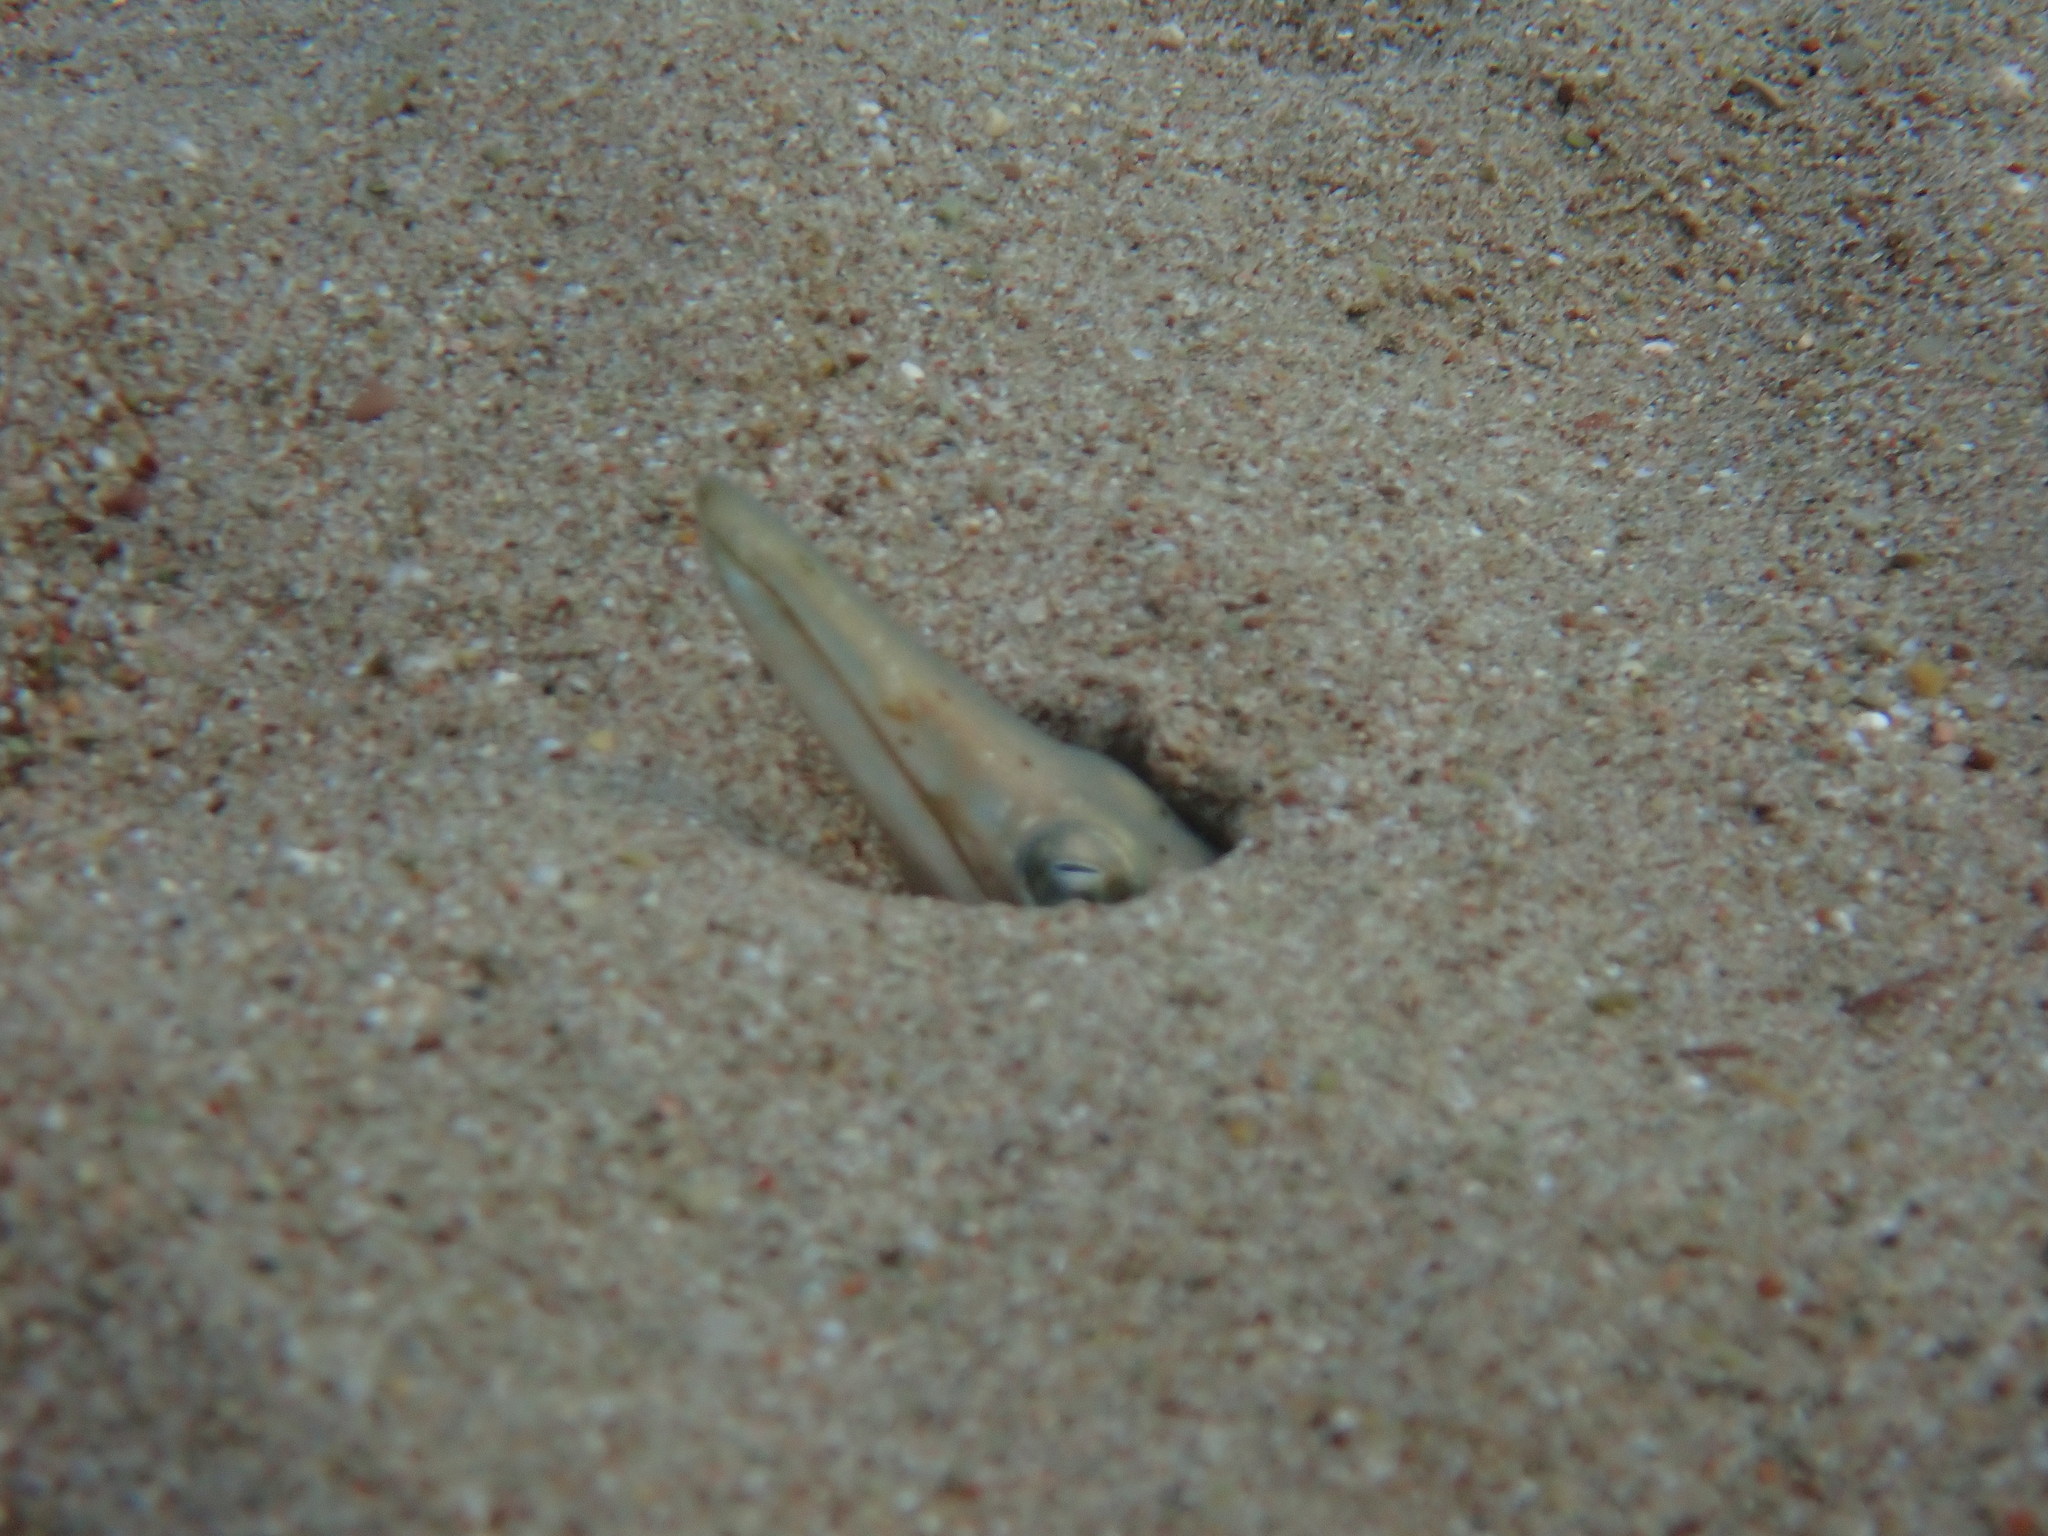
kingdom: Animalia
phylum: Chordata
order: Anguilliformes
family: Ophichthidae
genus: Ophisurus
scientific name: Ophisurus serpens
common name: Serpent eel
